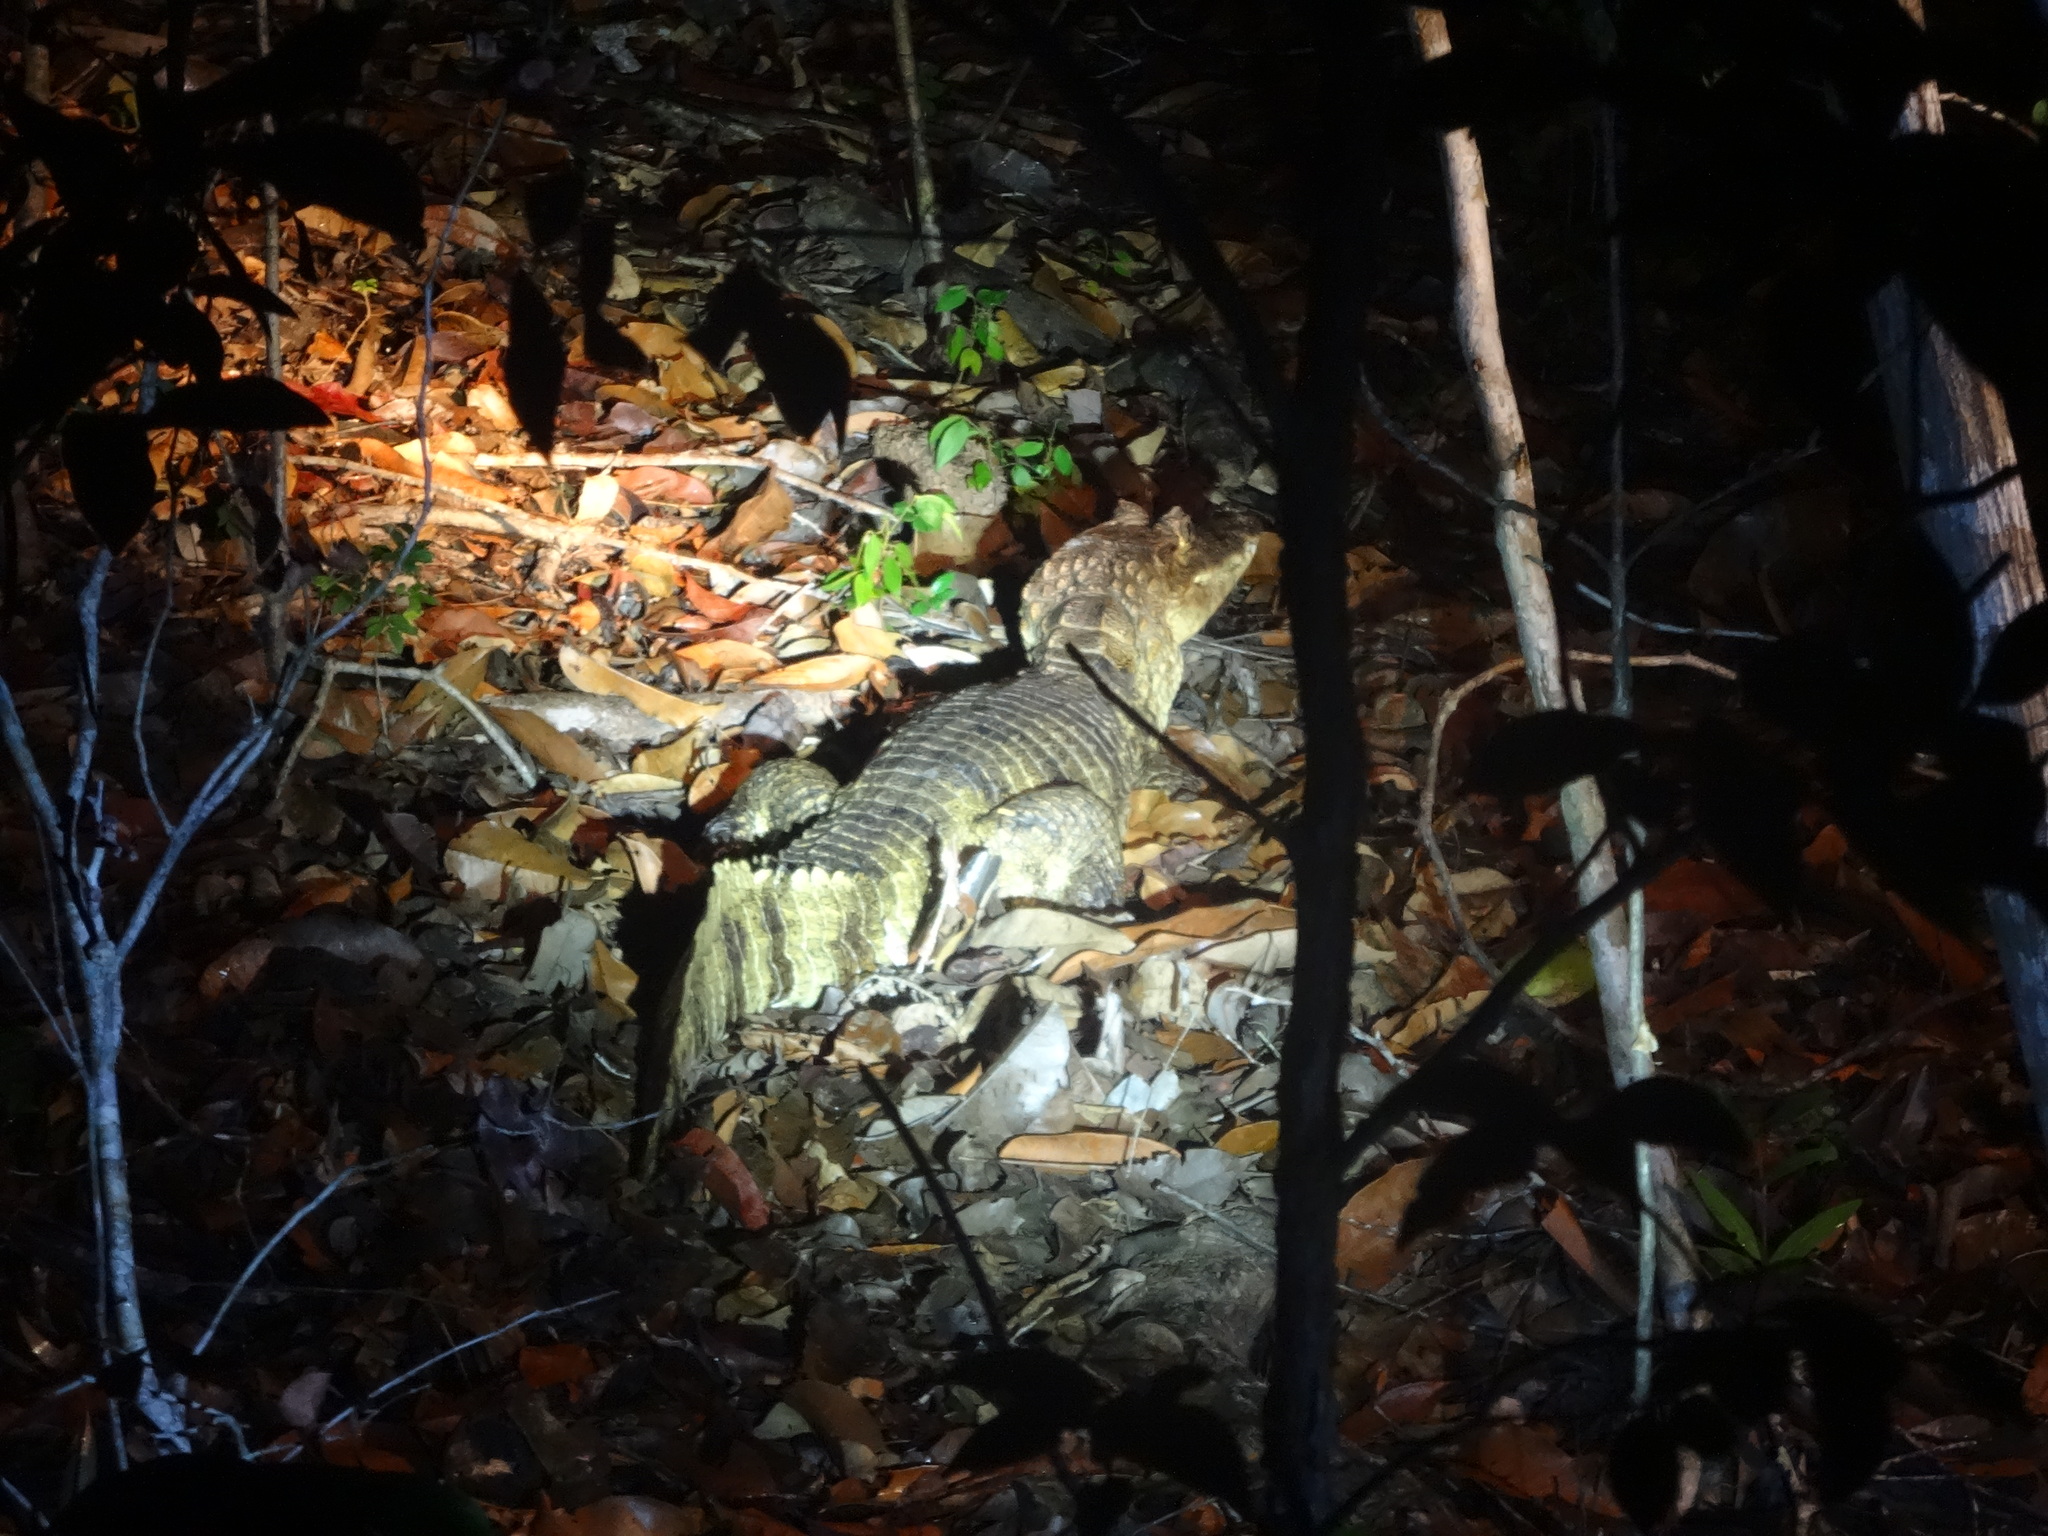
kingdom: Animalia
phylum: Chordata
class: Crocodylia
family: Alligatoridae
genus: Caiman
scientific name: Caiman crocodilus
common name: Common caiman
